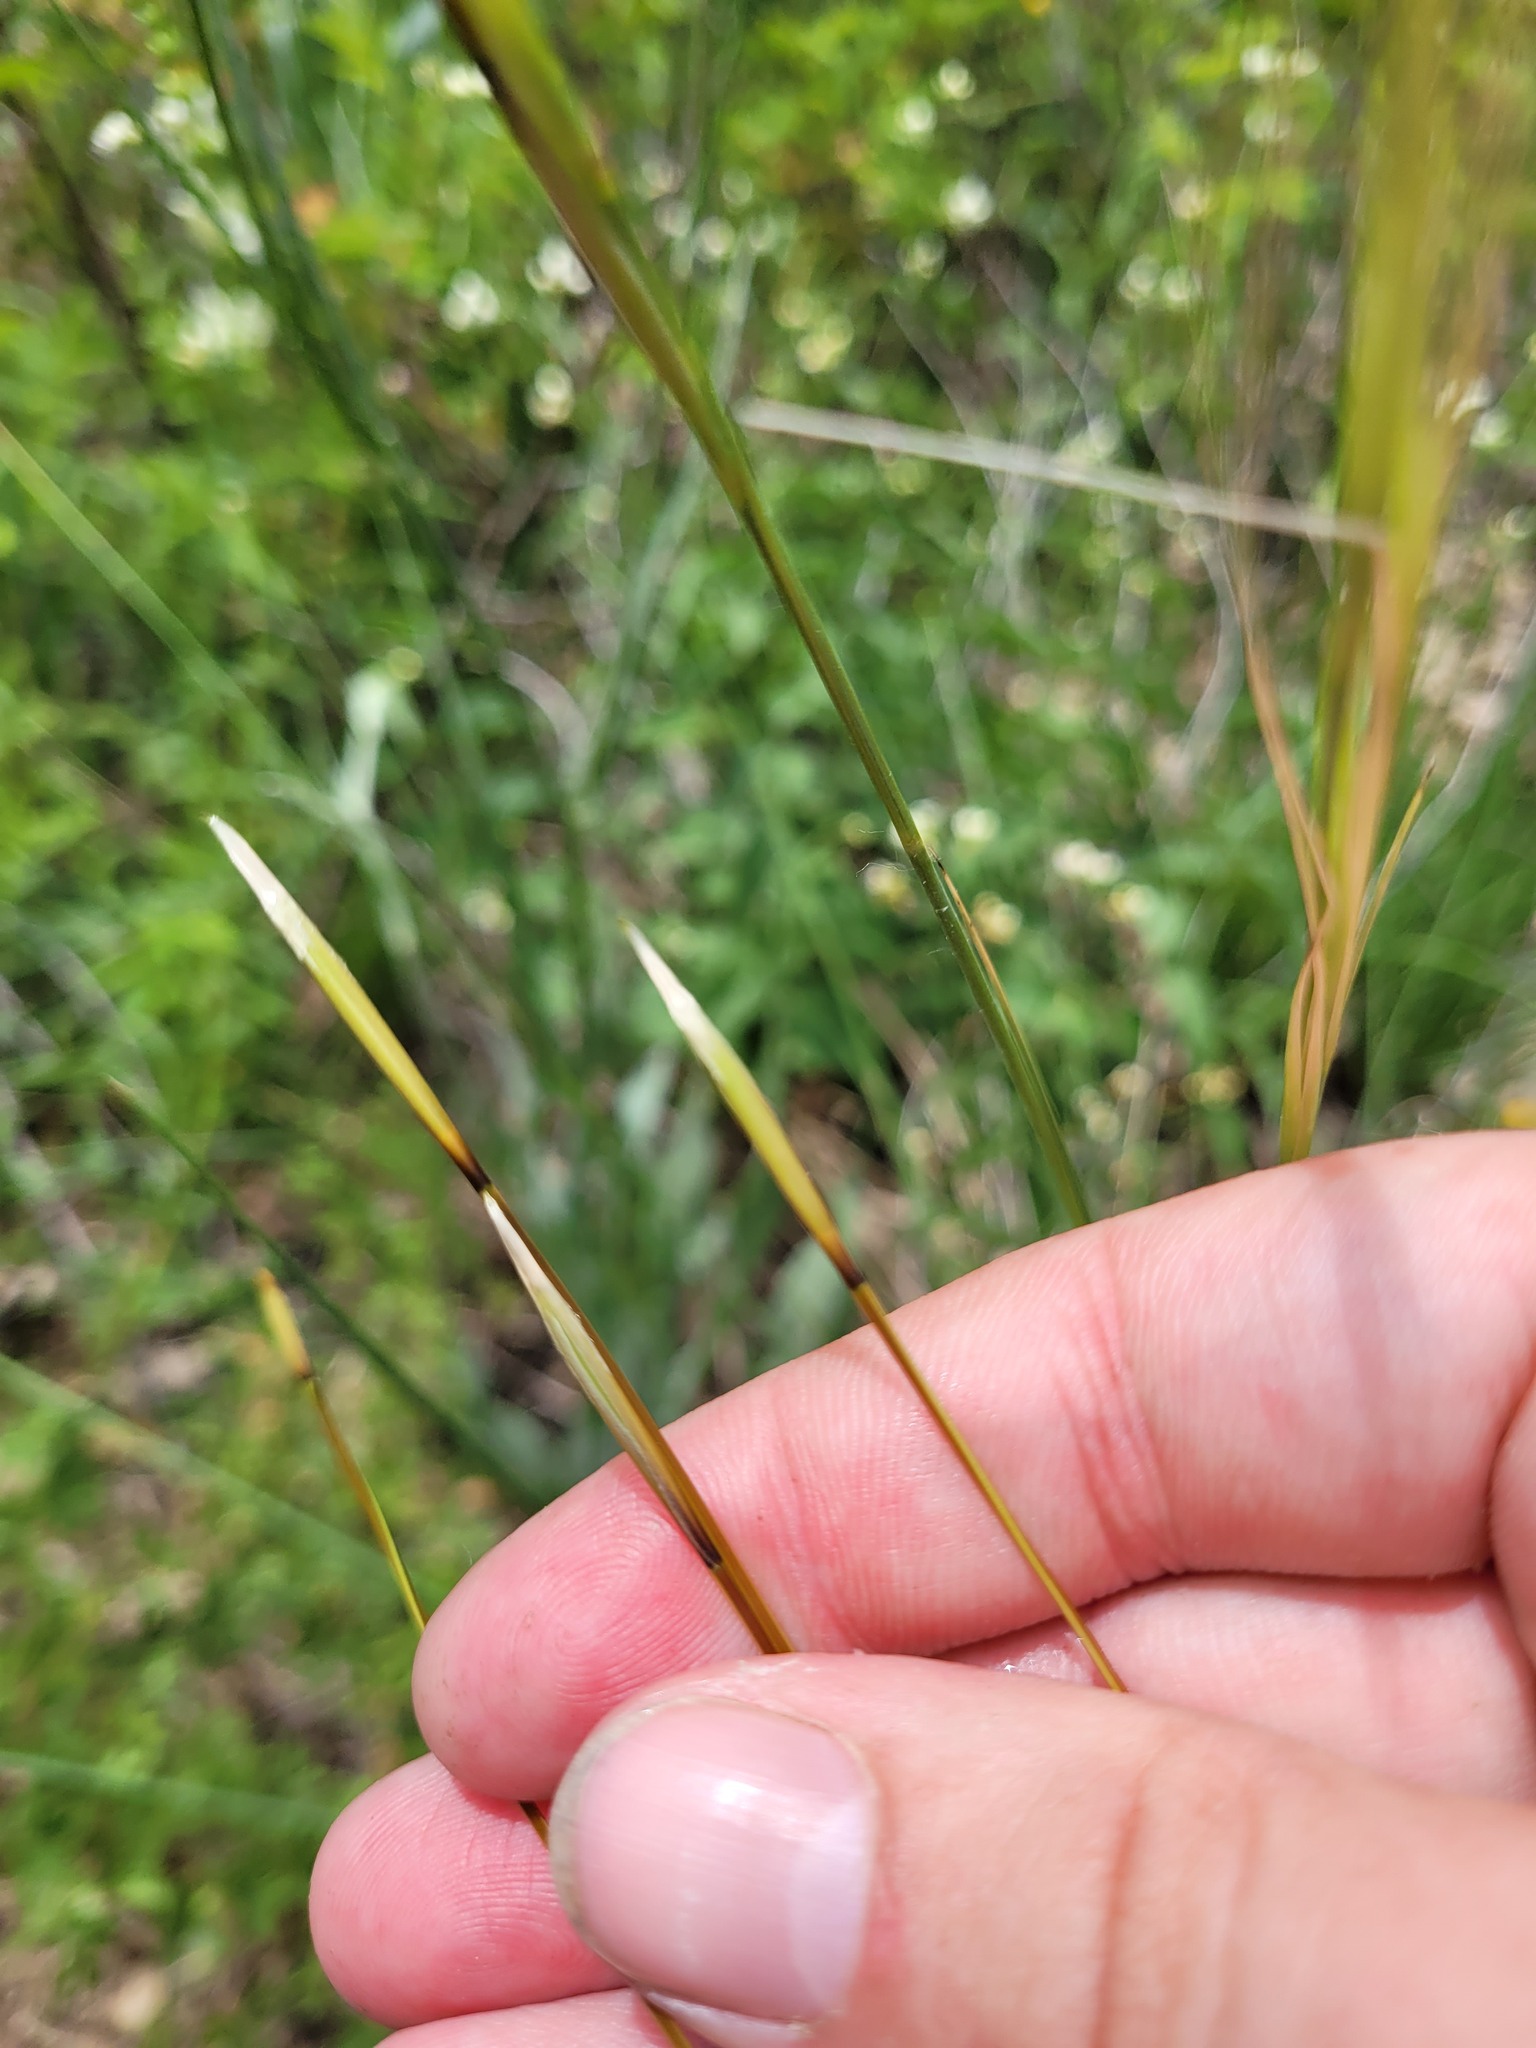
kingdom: Plantae
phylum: Tracheophyta
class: Liliopsida
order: Poales
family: Poaceae
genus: Stipa
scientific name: Stipa pennata
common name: European feather grass
